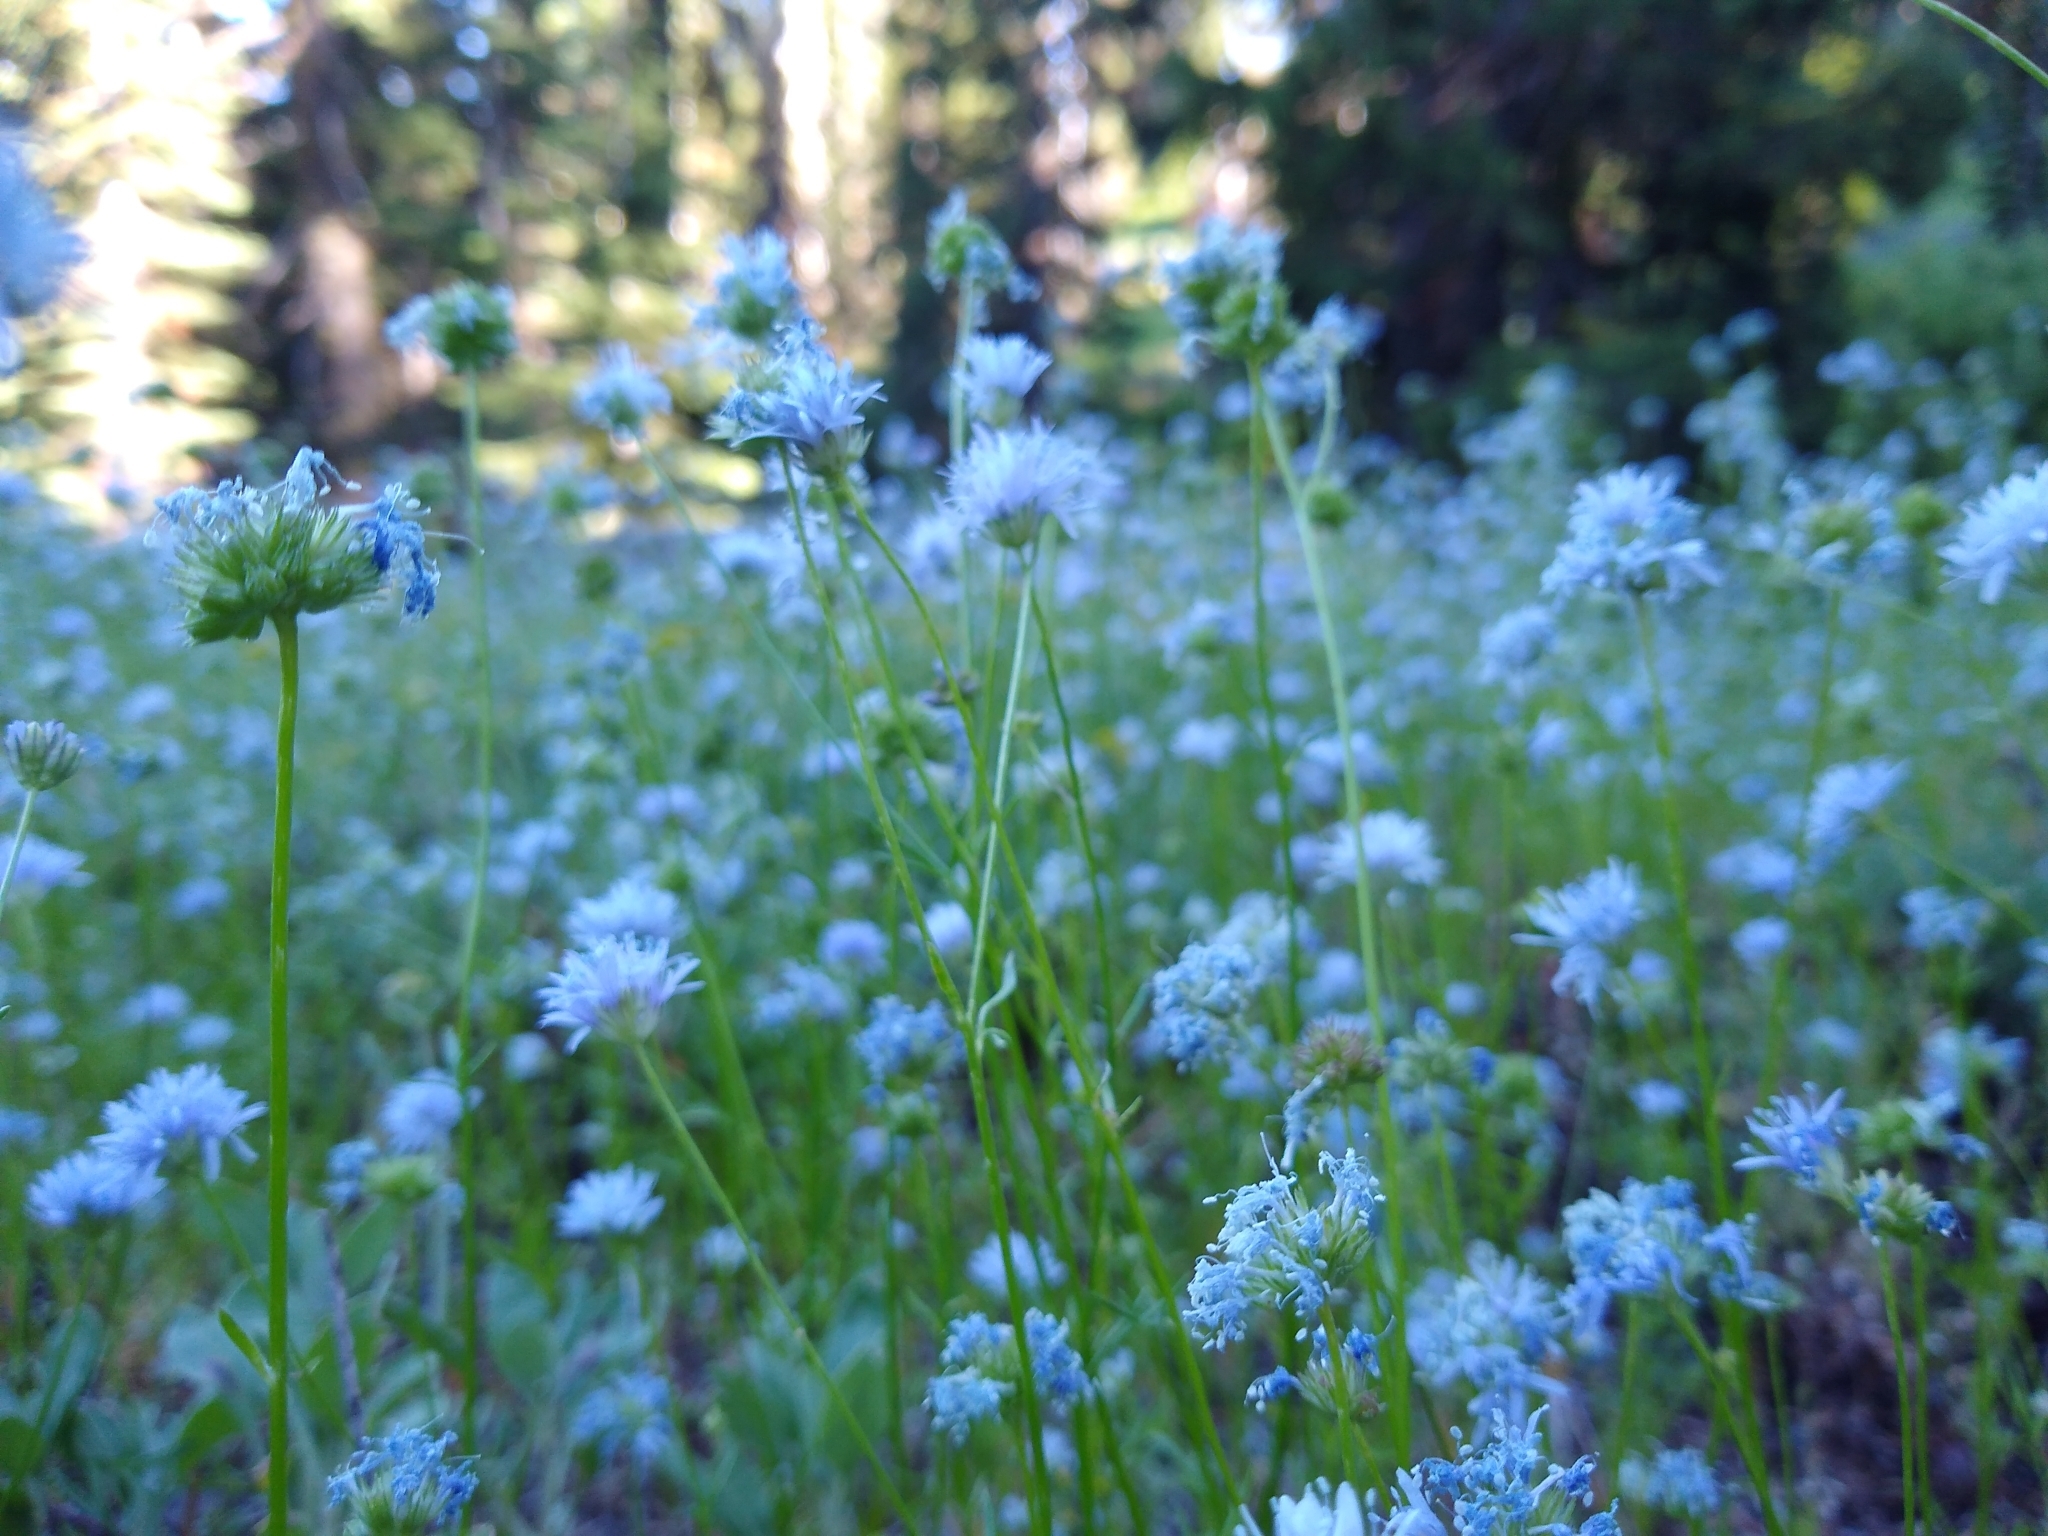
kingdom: Plantae
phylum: Tracheophyta
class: Magnoliopsida
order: Ericales
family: Polemoniaceae
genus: Gilia
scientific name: Gilia capitata
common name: Bluehead gilia
